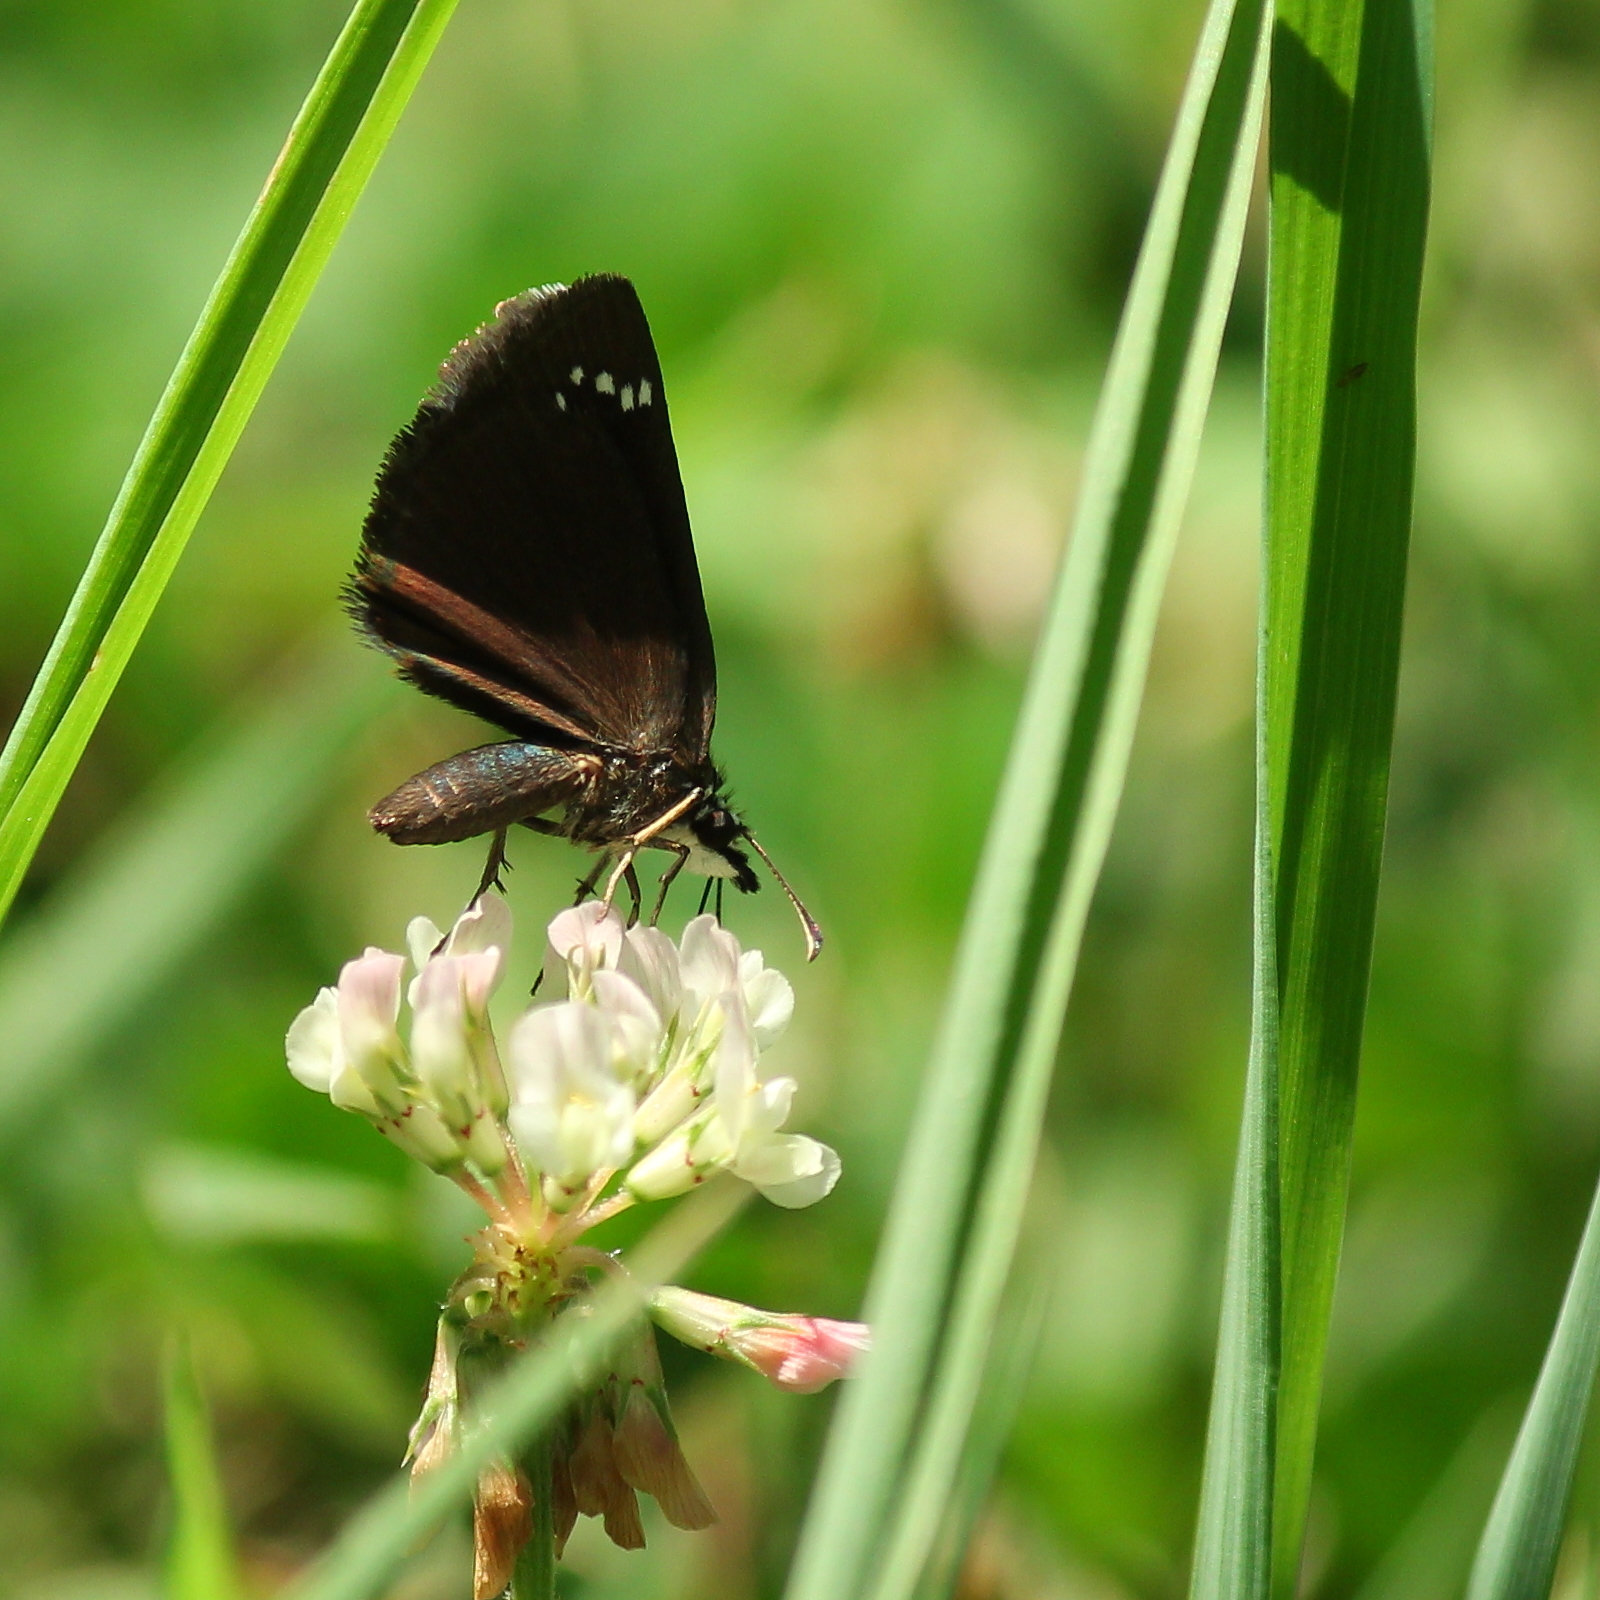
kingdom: Animalia
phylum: Arthropoda
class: Insecta
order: Lepidoptera
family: Hesperiidae
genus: Pholisora
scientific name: Pholisora catullus
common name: Common sootywing
